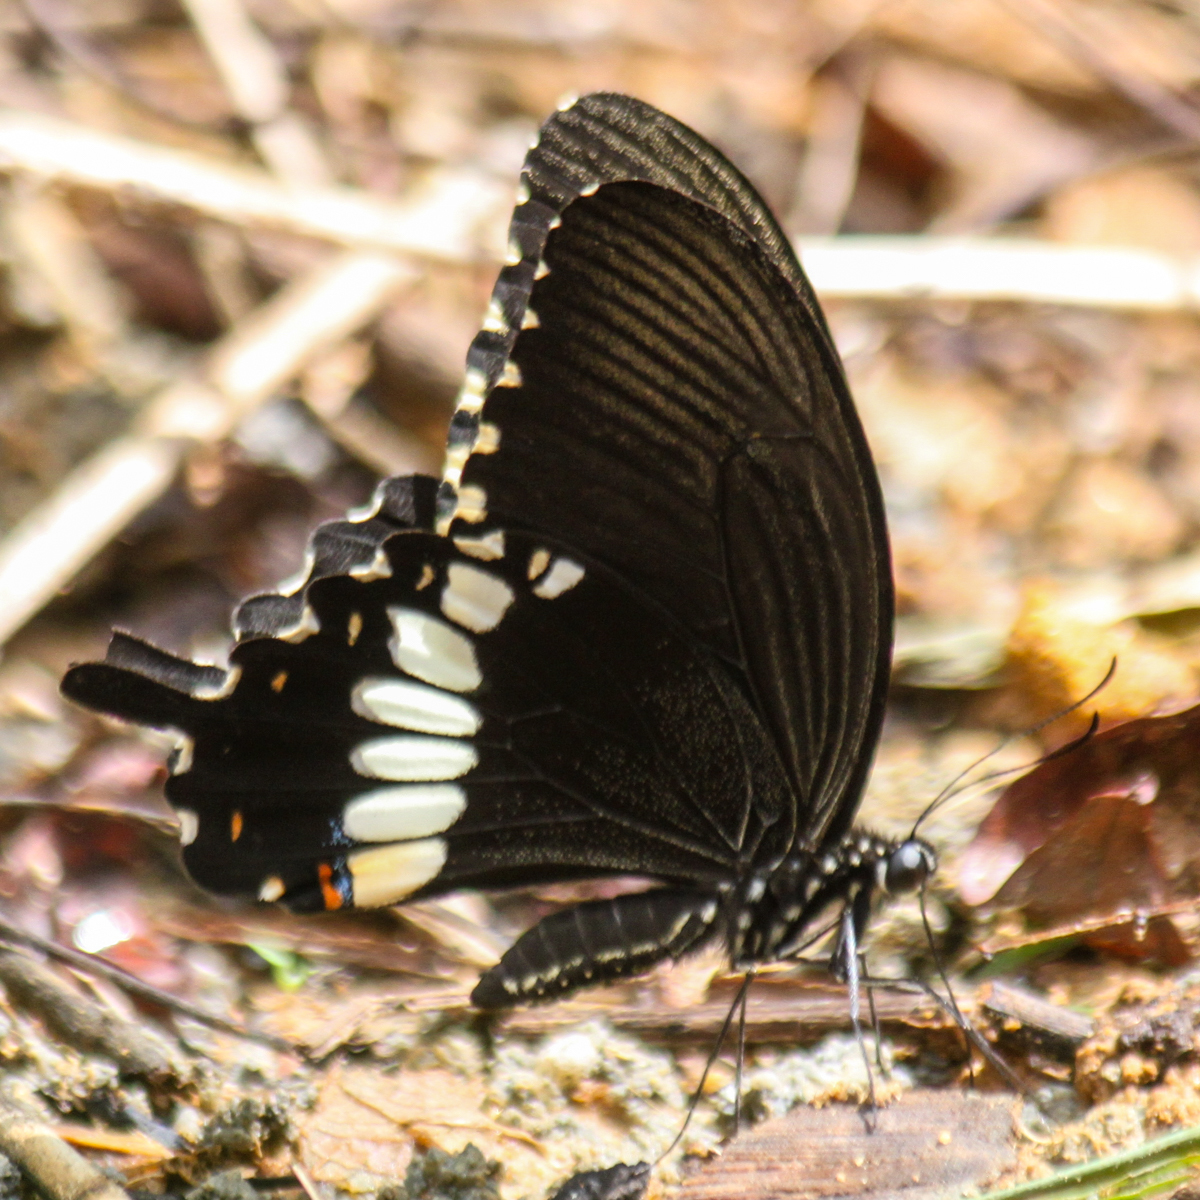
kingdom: Animalia
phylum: Arthropoda
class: Insecta
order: Lepidoptera
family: Papilionidae
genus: Papilio
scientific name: Papilio polytes
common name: Common mormon
